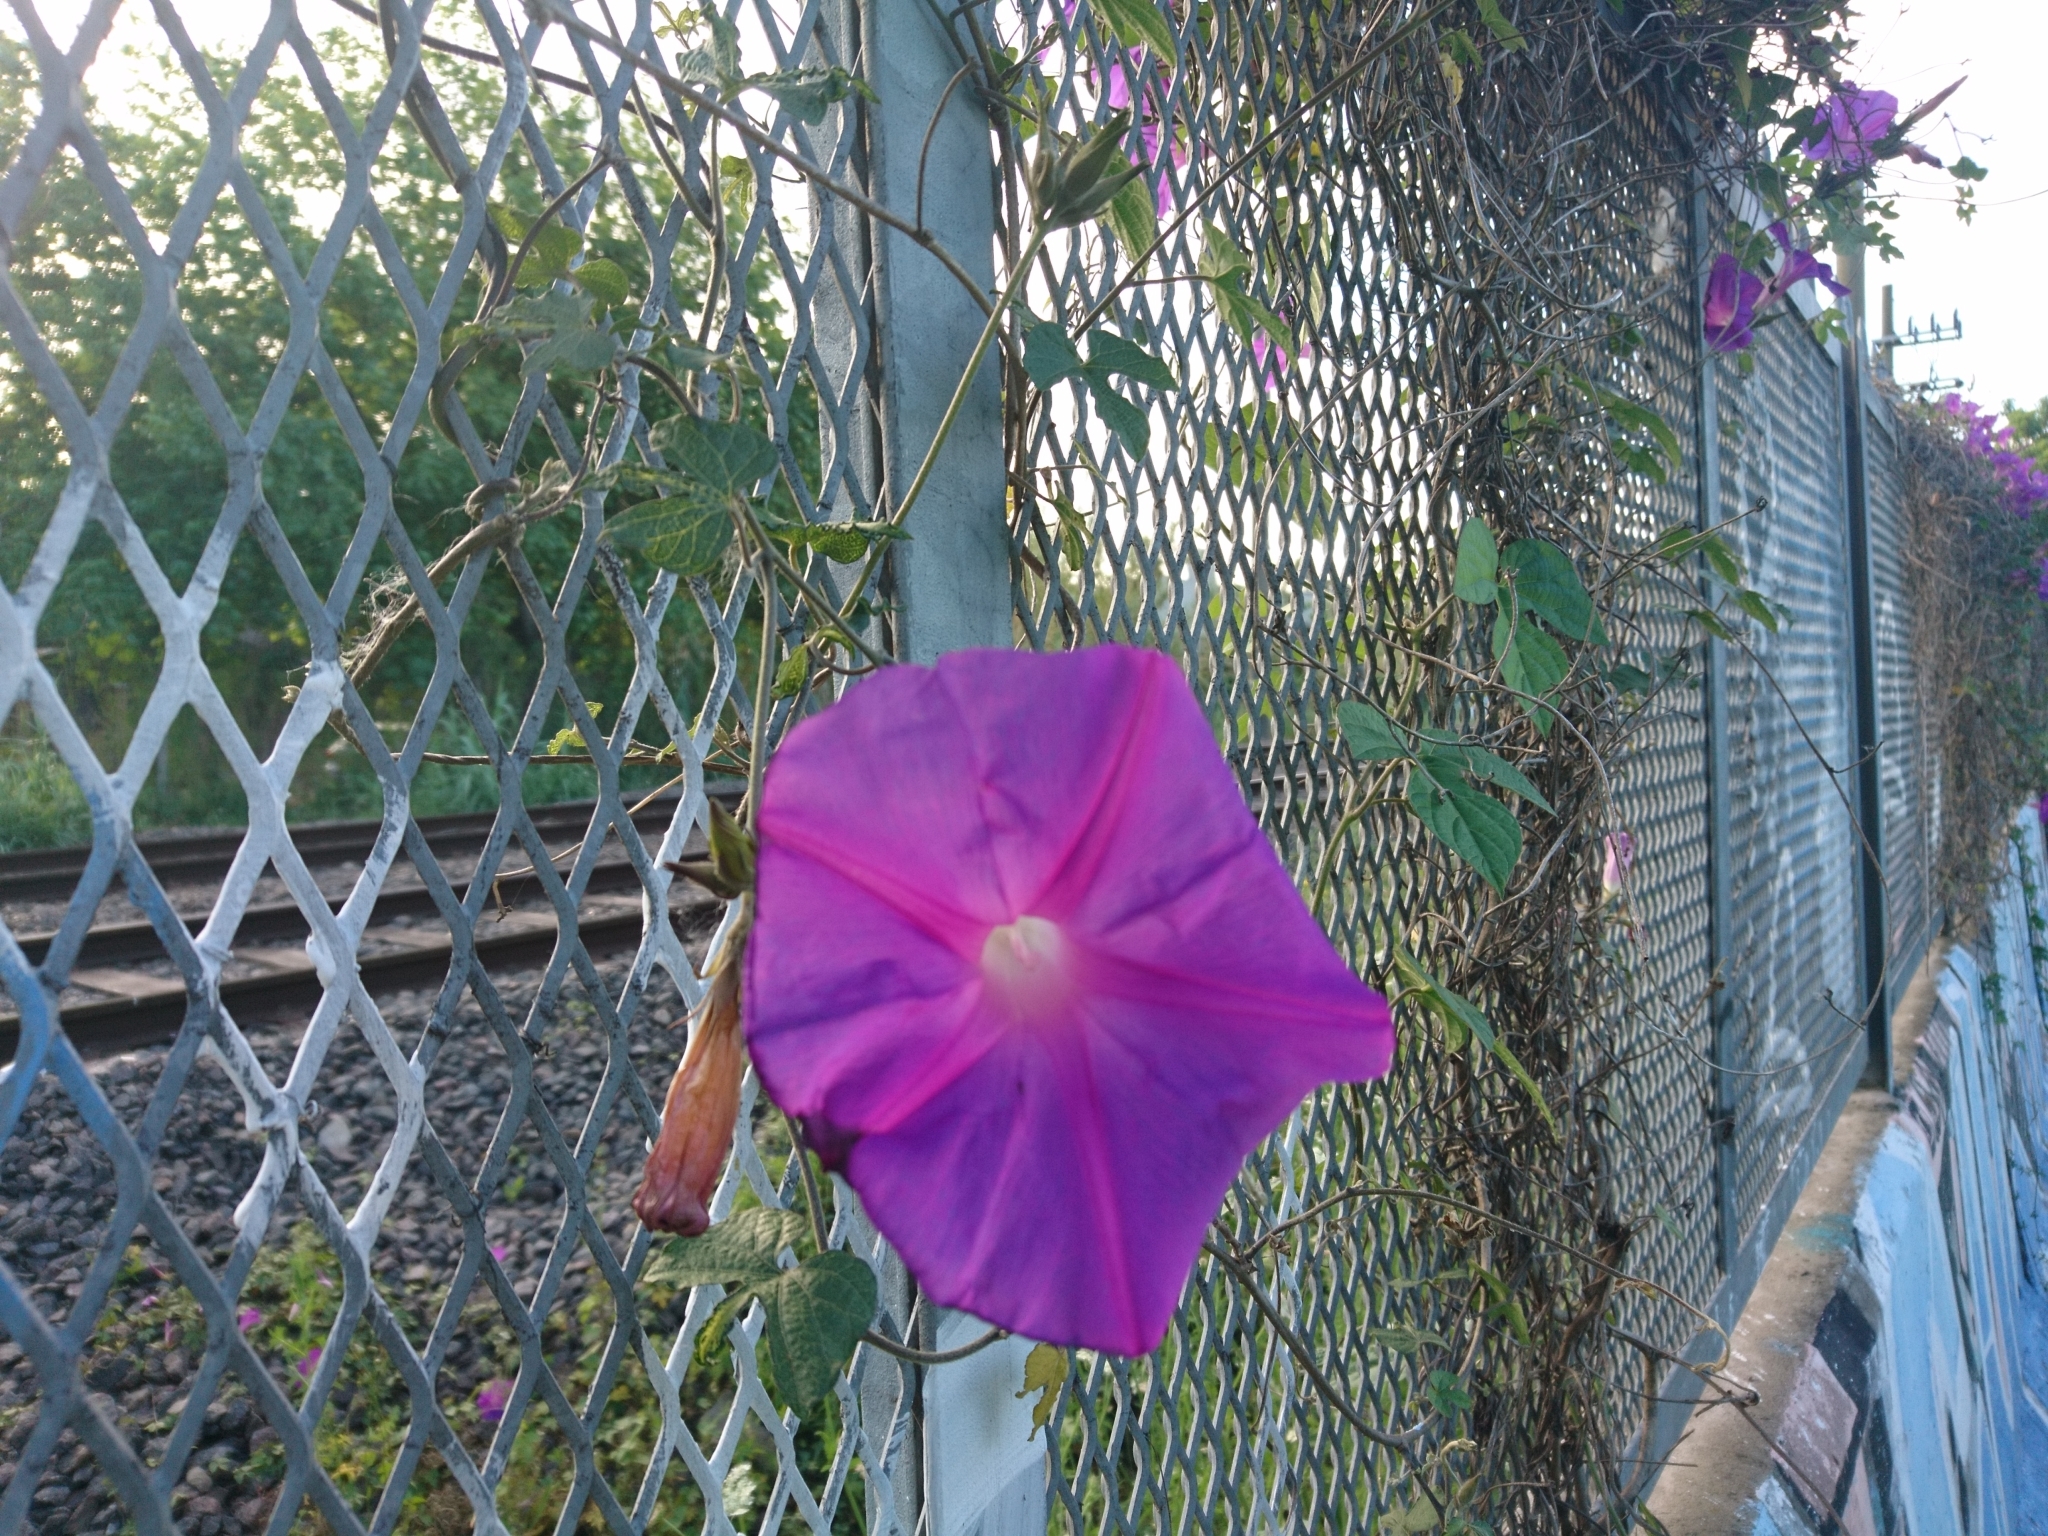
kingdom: Plantae
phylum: Tracheophyta
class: Magnoliopsida
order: Solanales
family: Convolvulaceae
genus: Ipomoea
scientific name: Ipomoea indica
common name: Blue dawnflower
